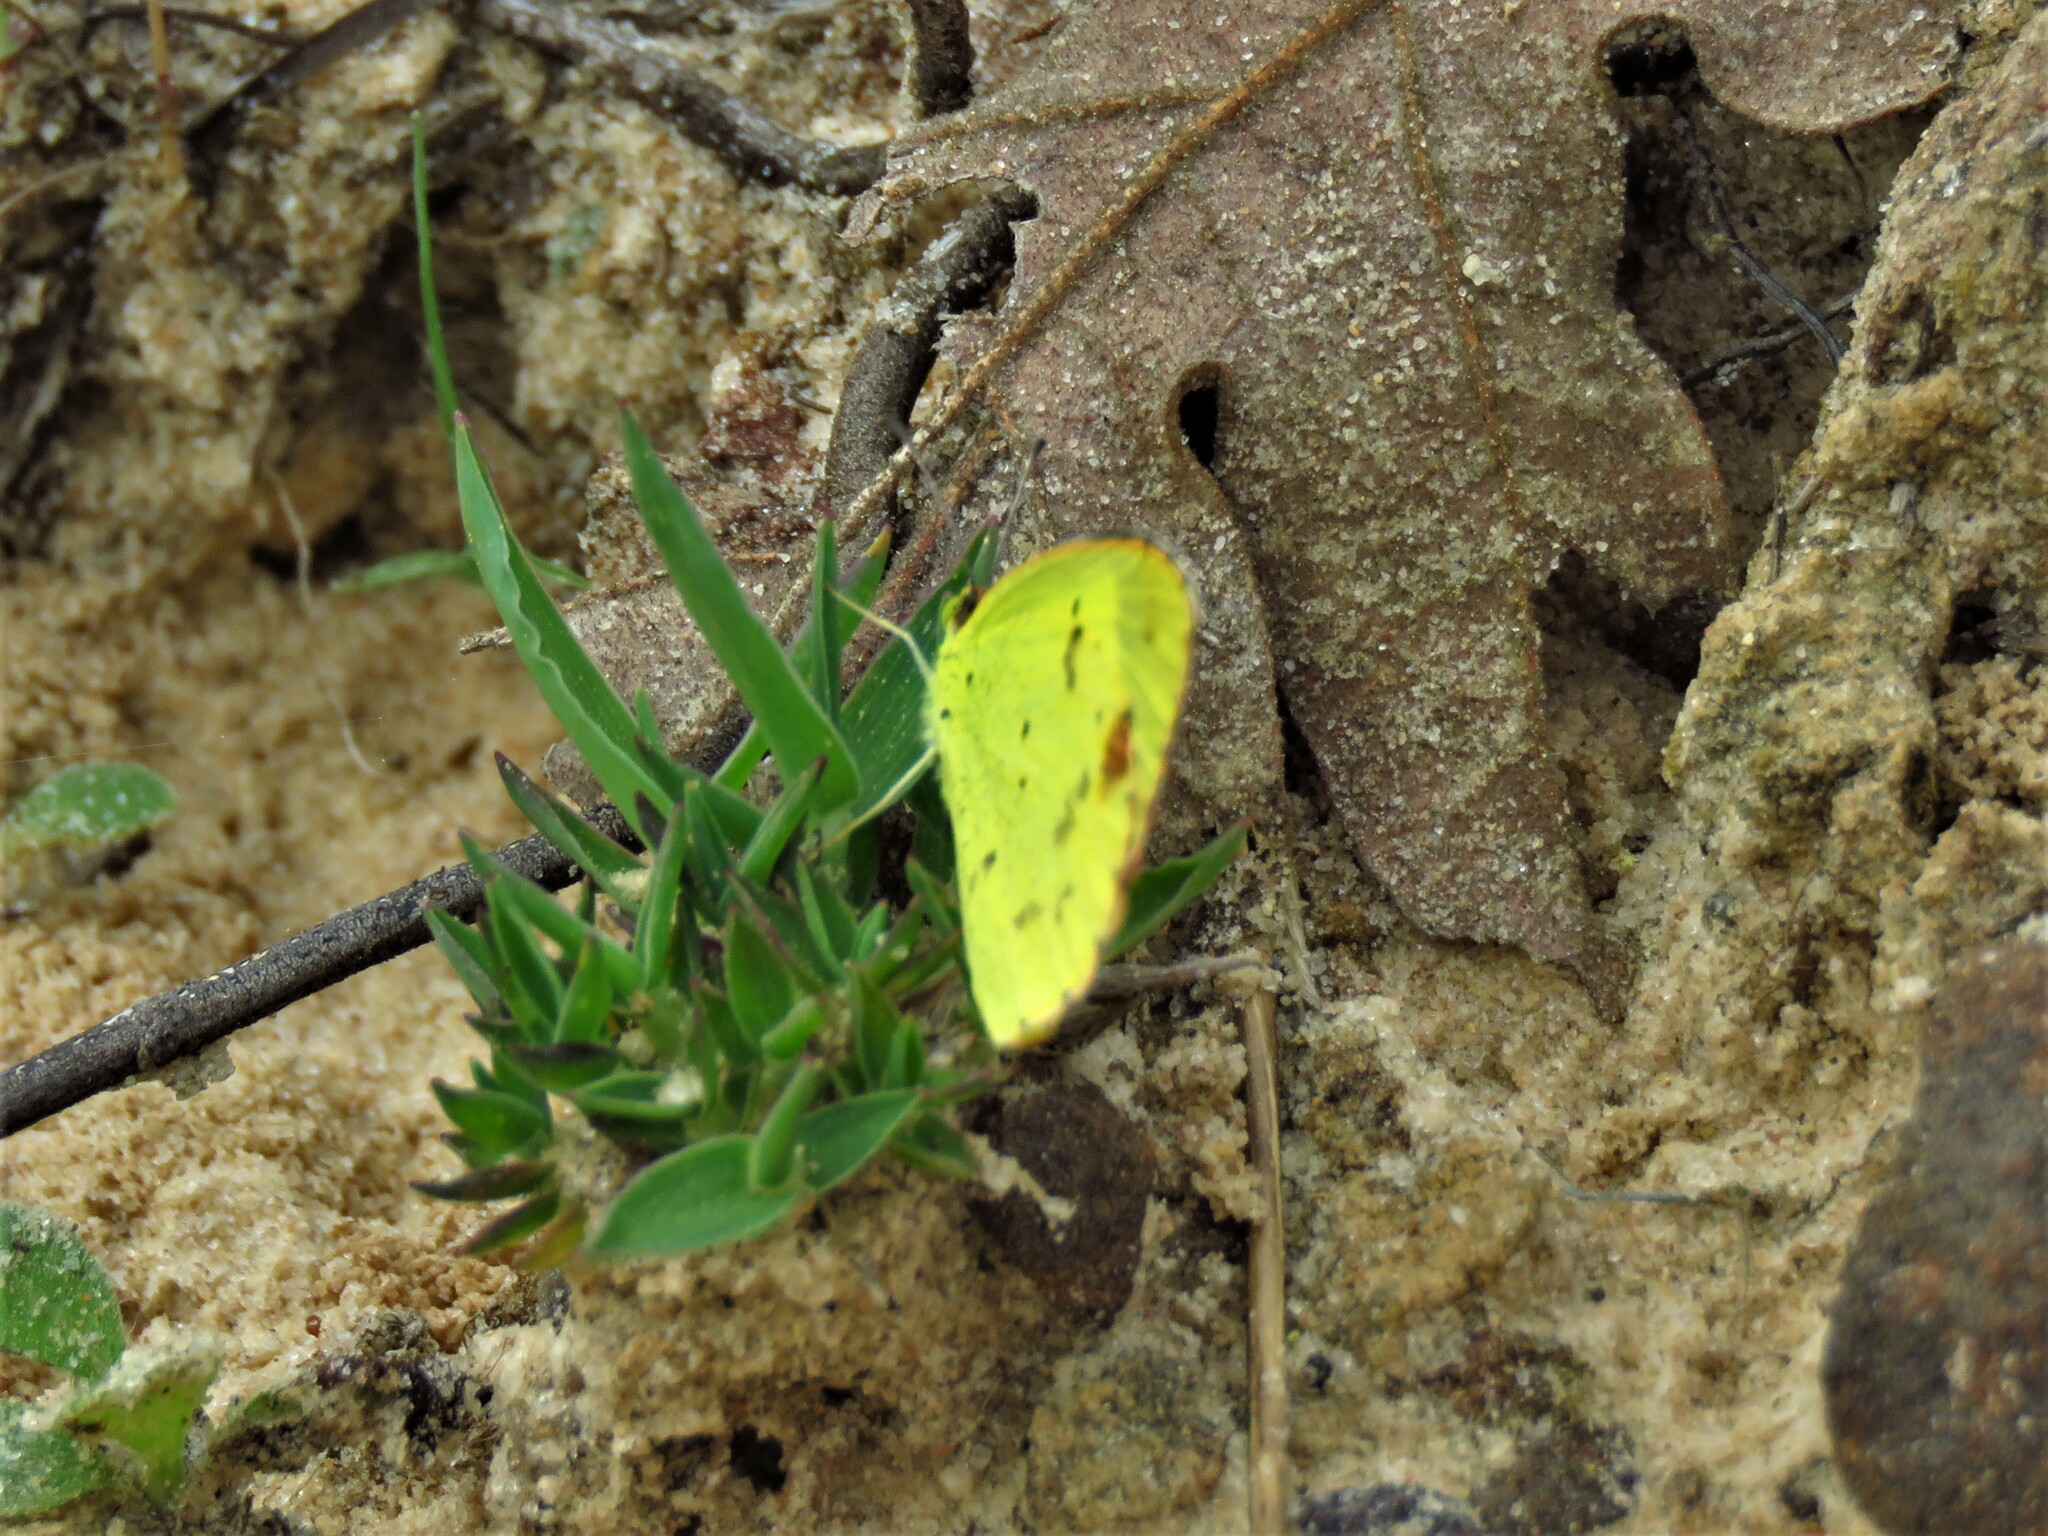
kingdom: Animalia
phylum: Arthropoda
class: Insecta
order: Lepidoptera
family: Pieridae
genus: Pyrisitia
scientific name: Pyrisitia lisa
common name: Little yellow
